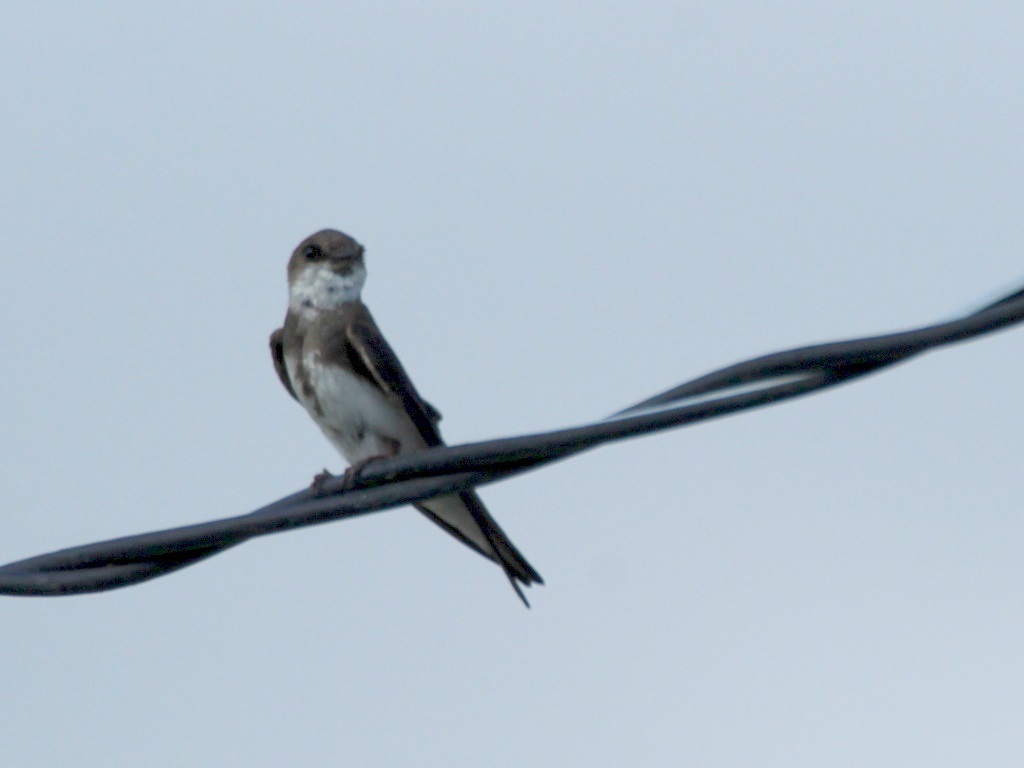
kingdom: Animalia
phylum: Chordata
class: Aves
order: Passeriformes
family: Hirundinidae
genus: Riparia
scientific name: Riparia riparia
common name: Sand martin
